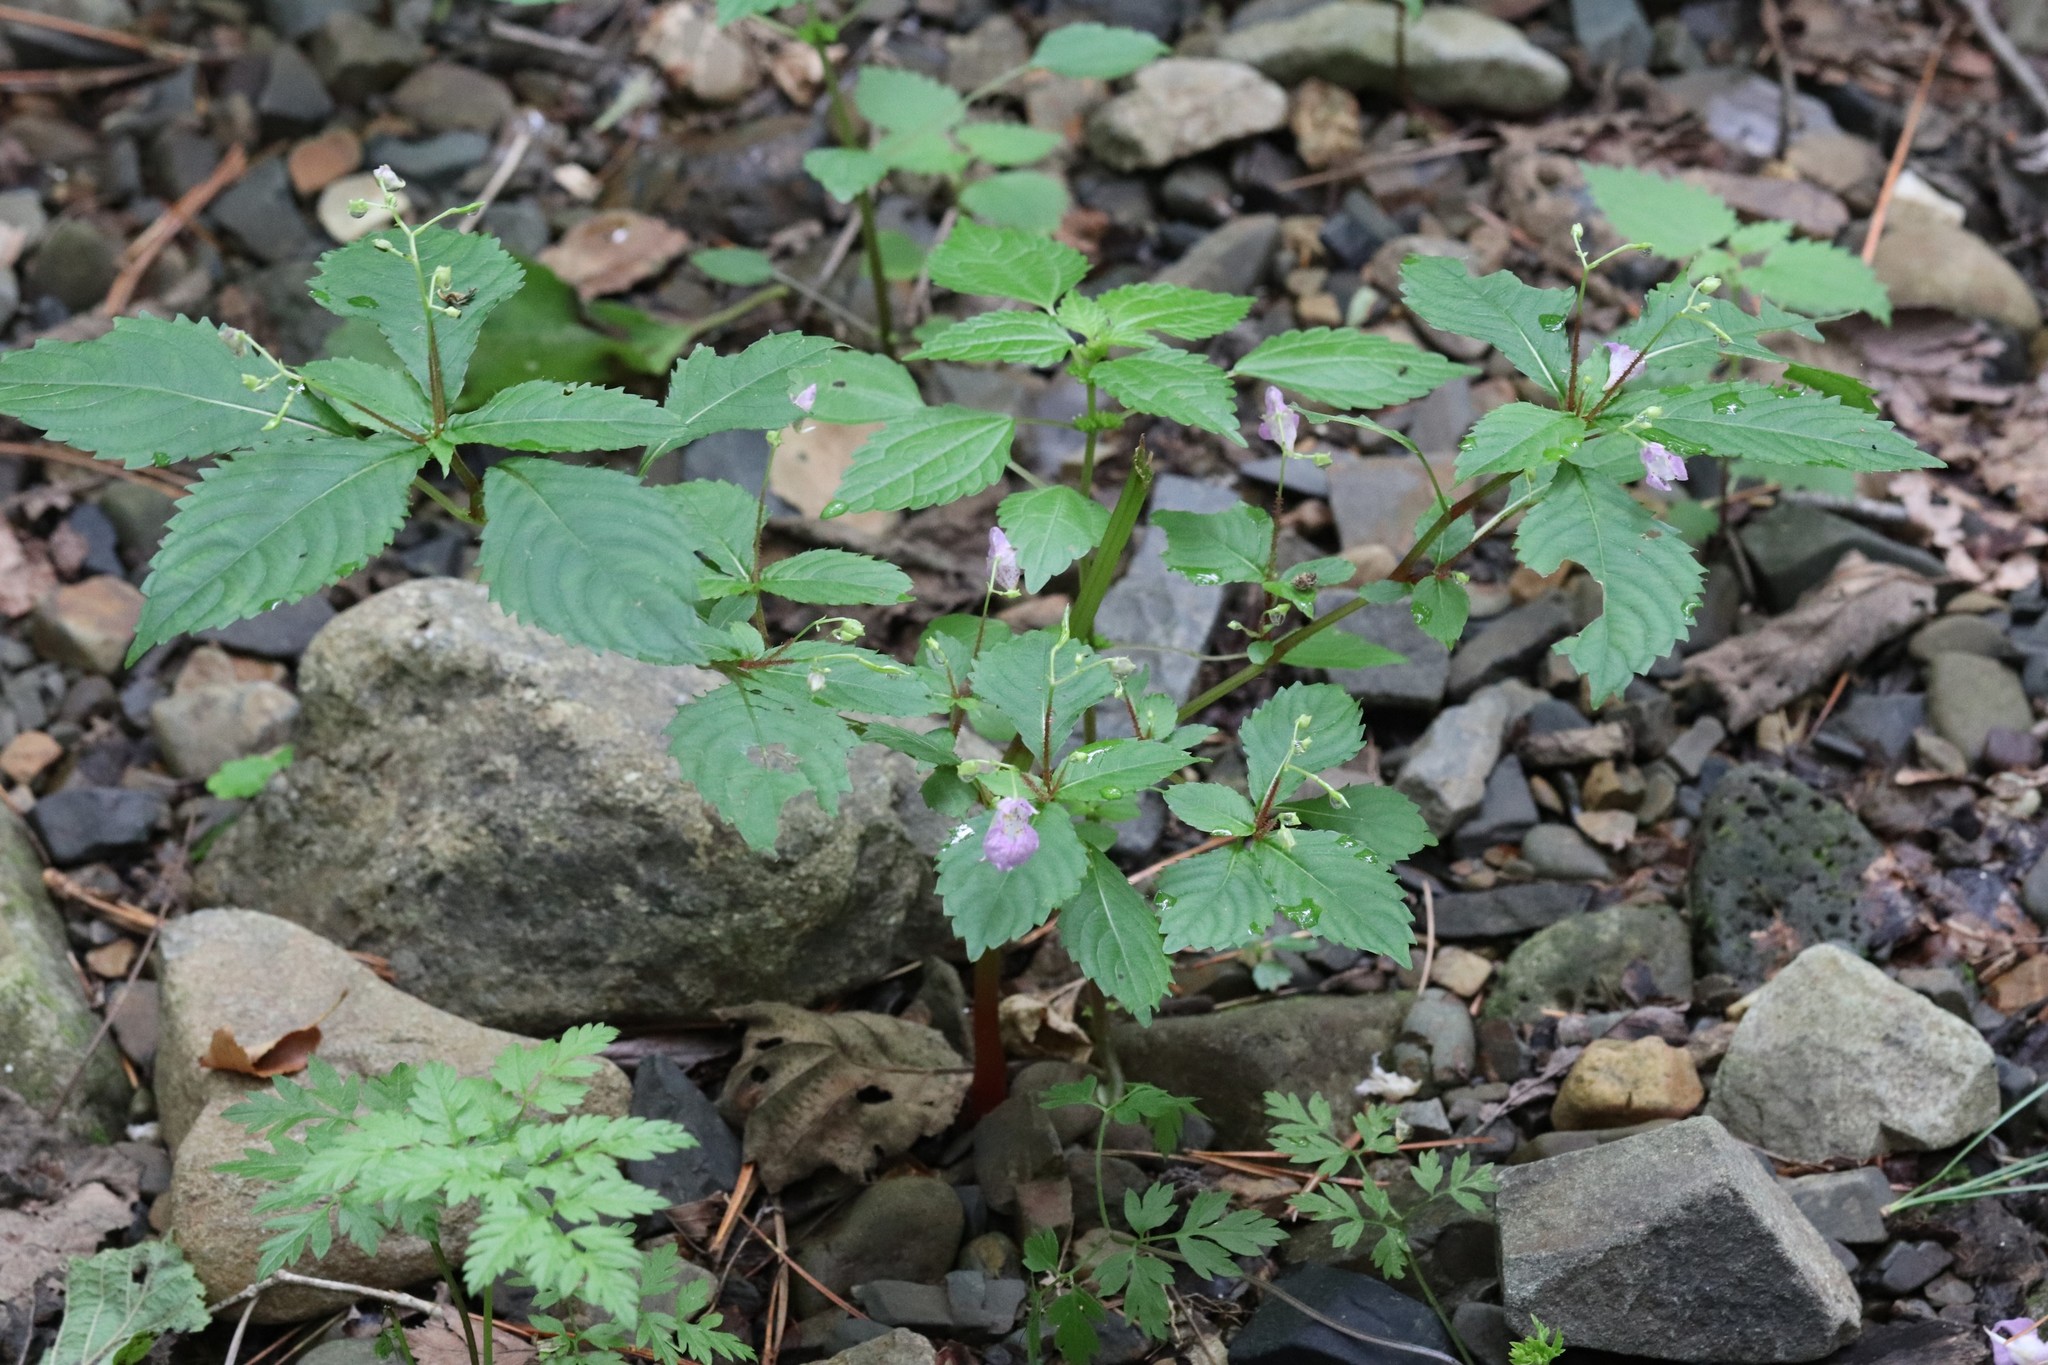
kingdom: Plantae
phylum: Tracheophyta
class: Magnoliopsida
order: Ericales
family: Balsaminaceae
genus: Impatiens
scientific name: Impatiens furcillata
